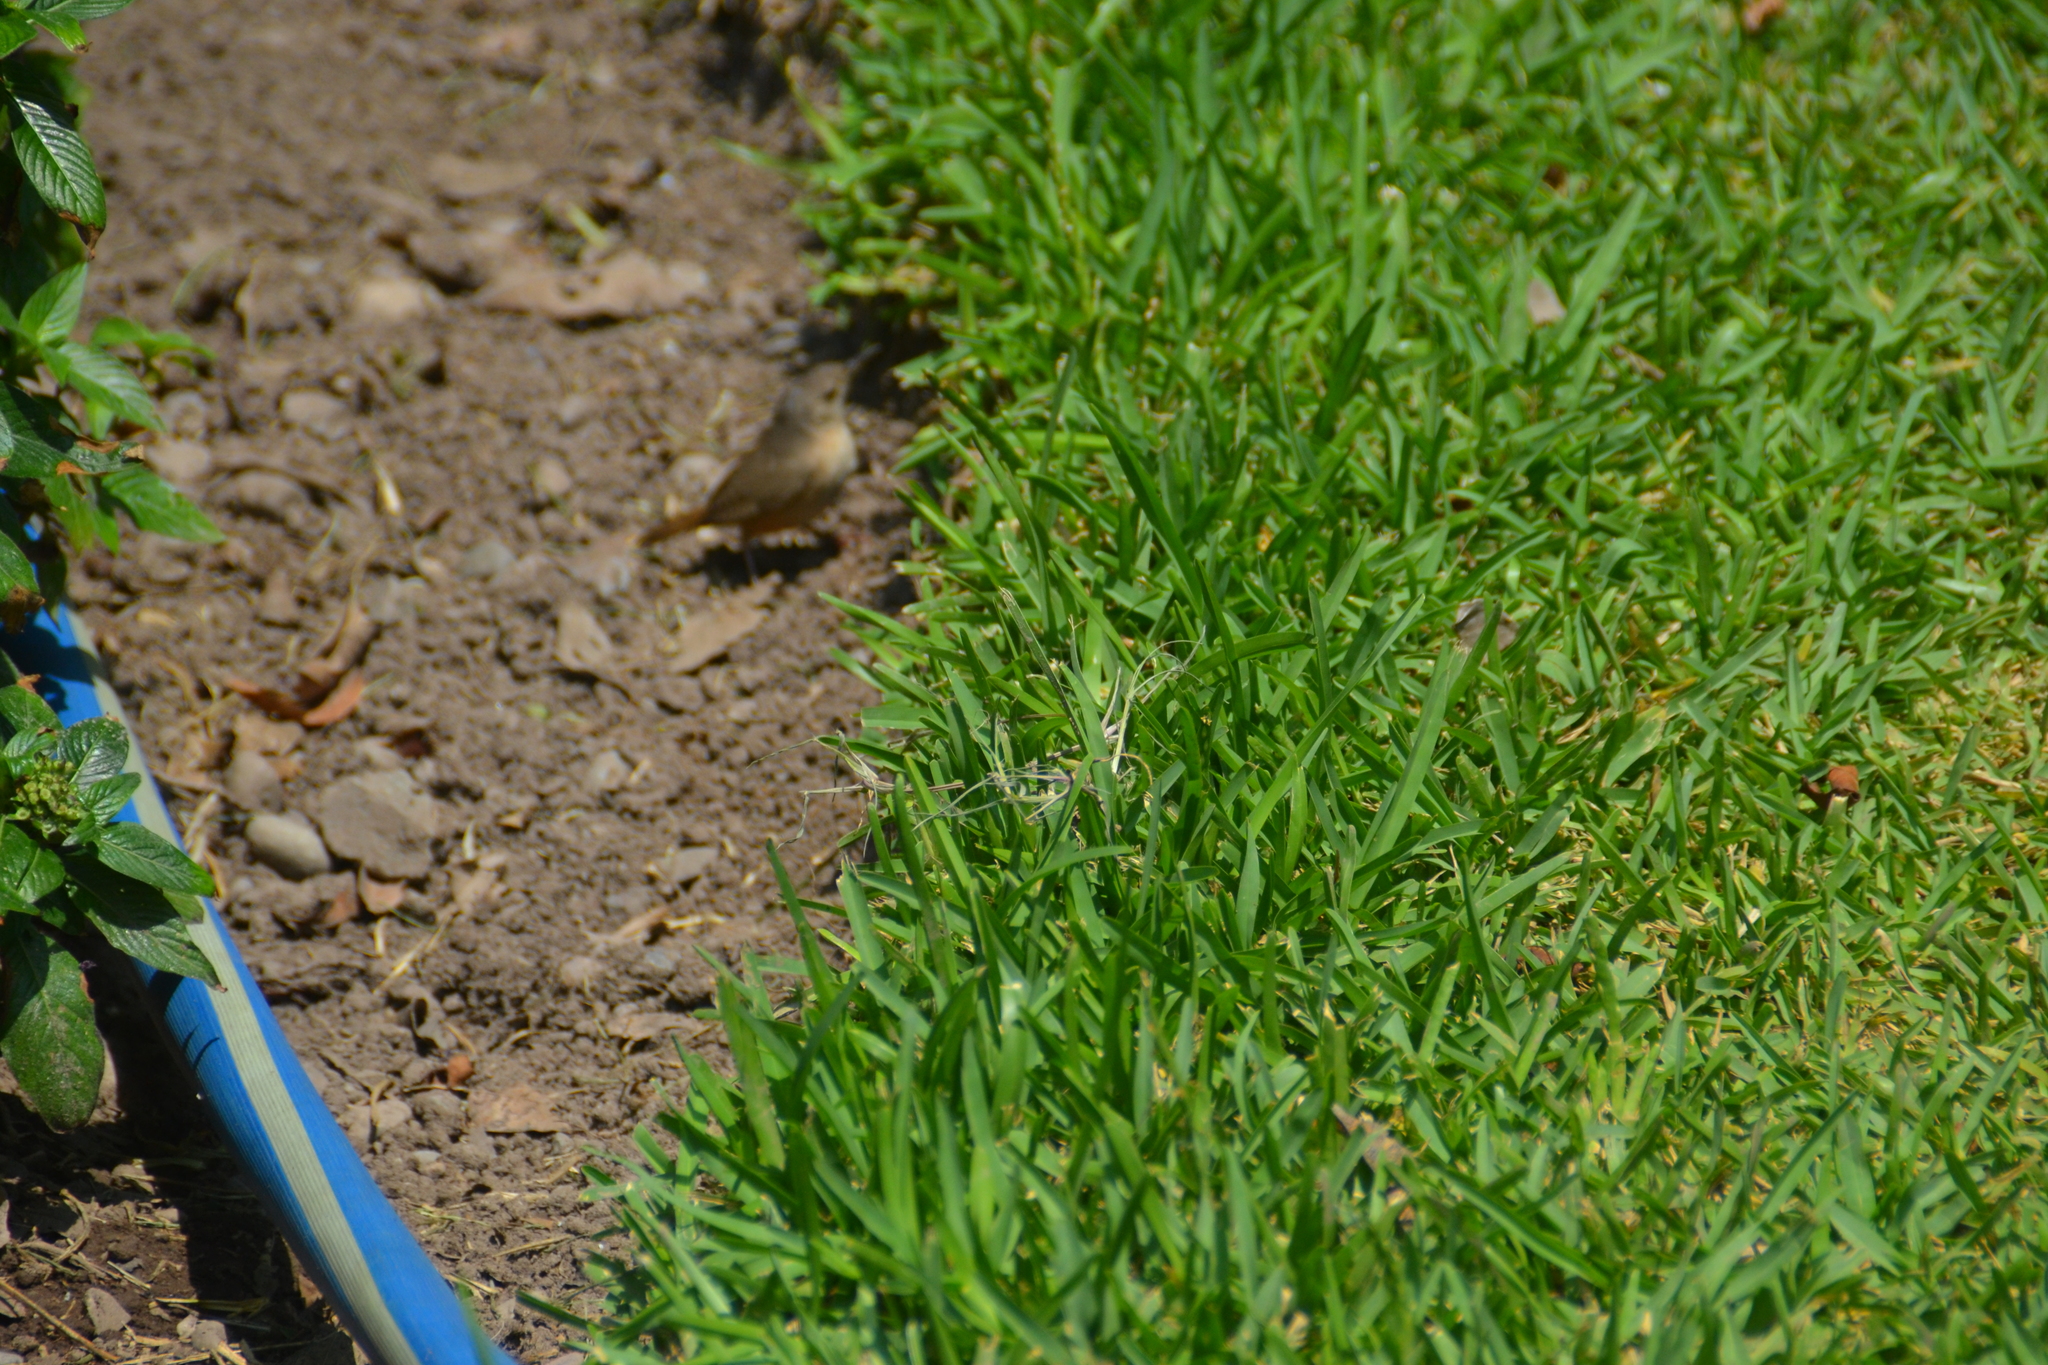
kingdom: Animalia
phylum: Chordata
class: Aves
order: Passeriformes
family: Troglodytidae
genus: Troglodytes
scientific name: Troglodytes aedon
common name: House wren
